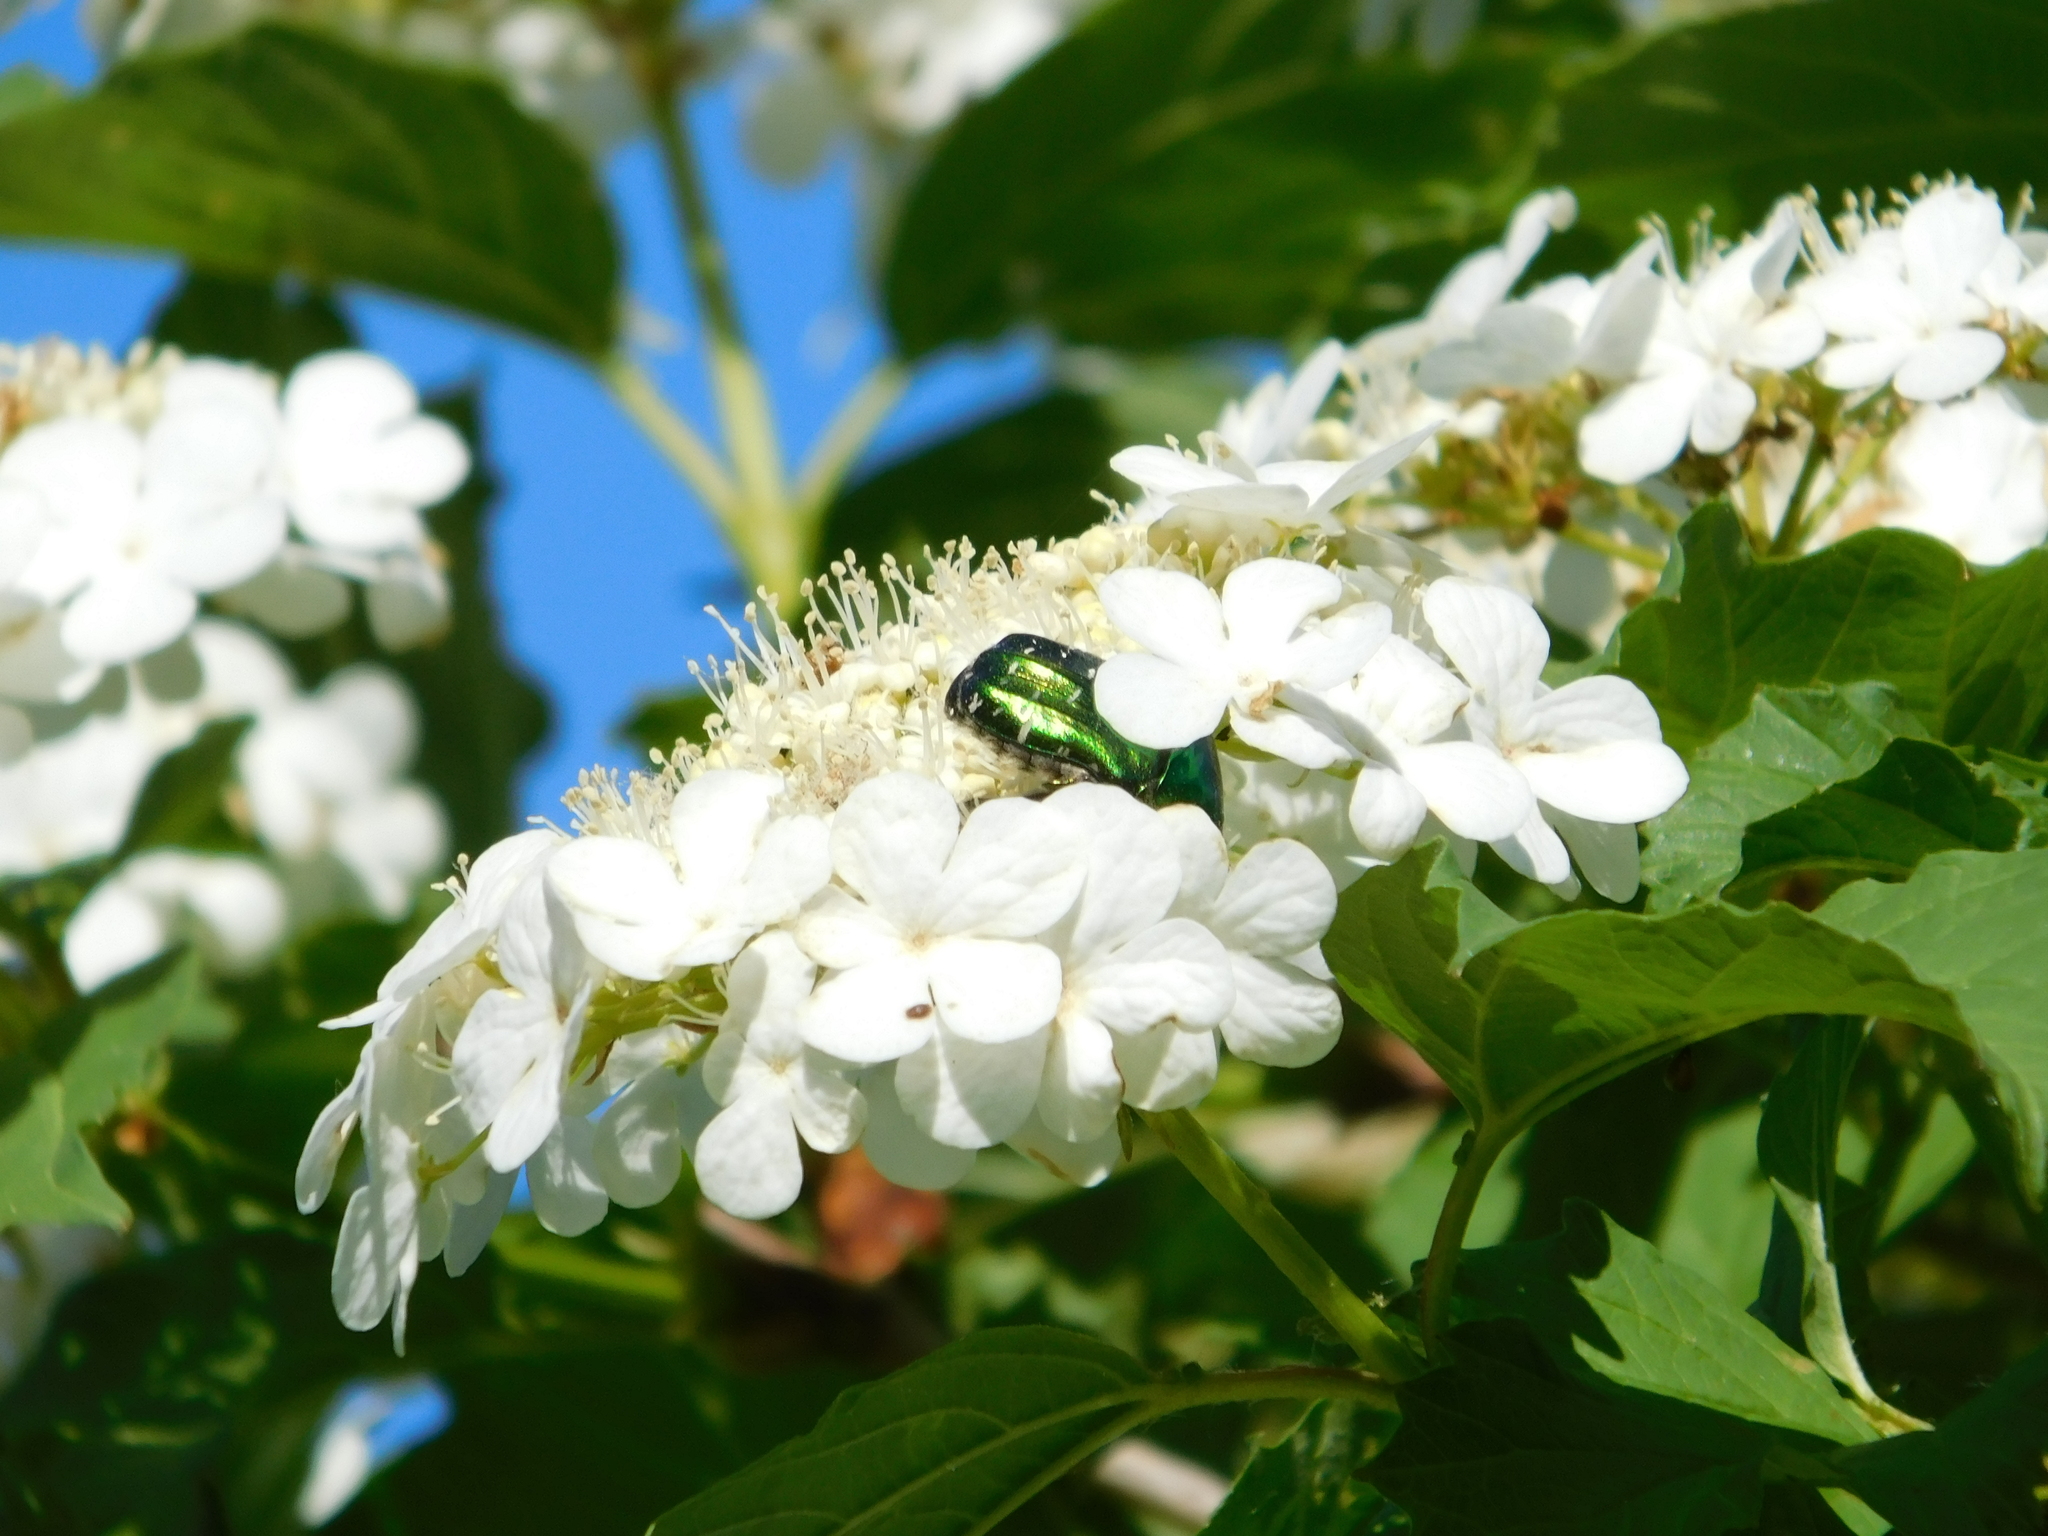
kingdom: Animalia
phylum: Arthropoda
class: Insecta
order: Coleoptera
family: Scarabaeidae
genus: Cetonia
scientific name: Cetonia aurata
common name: Rose chafer
